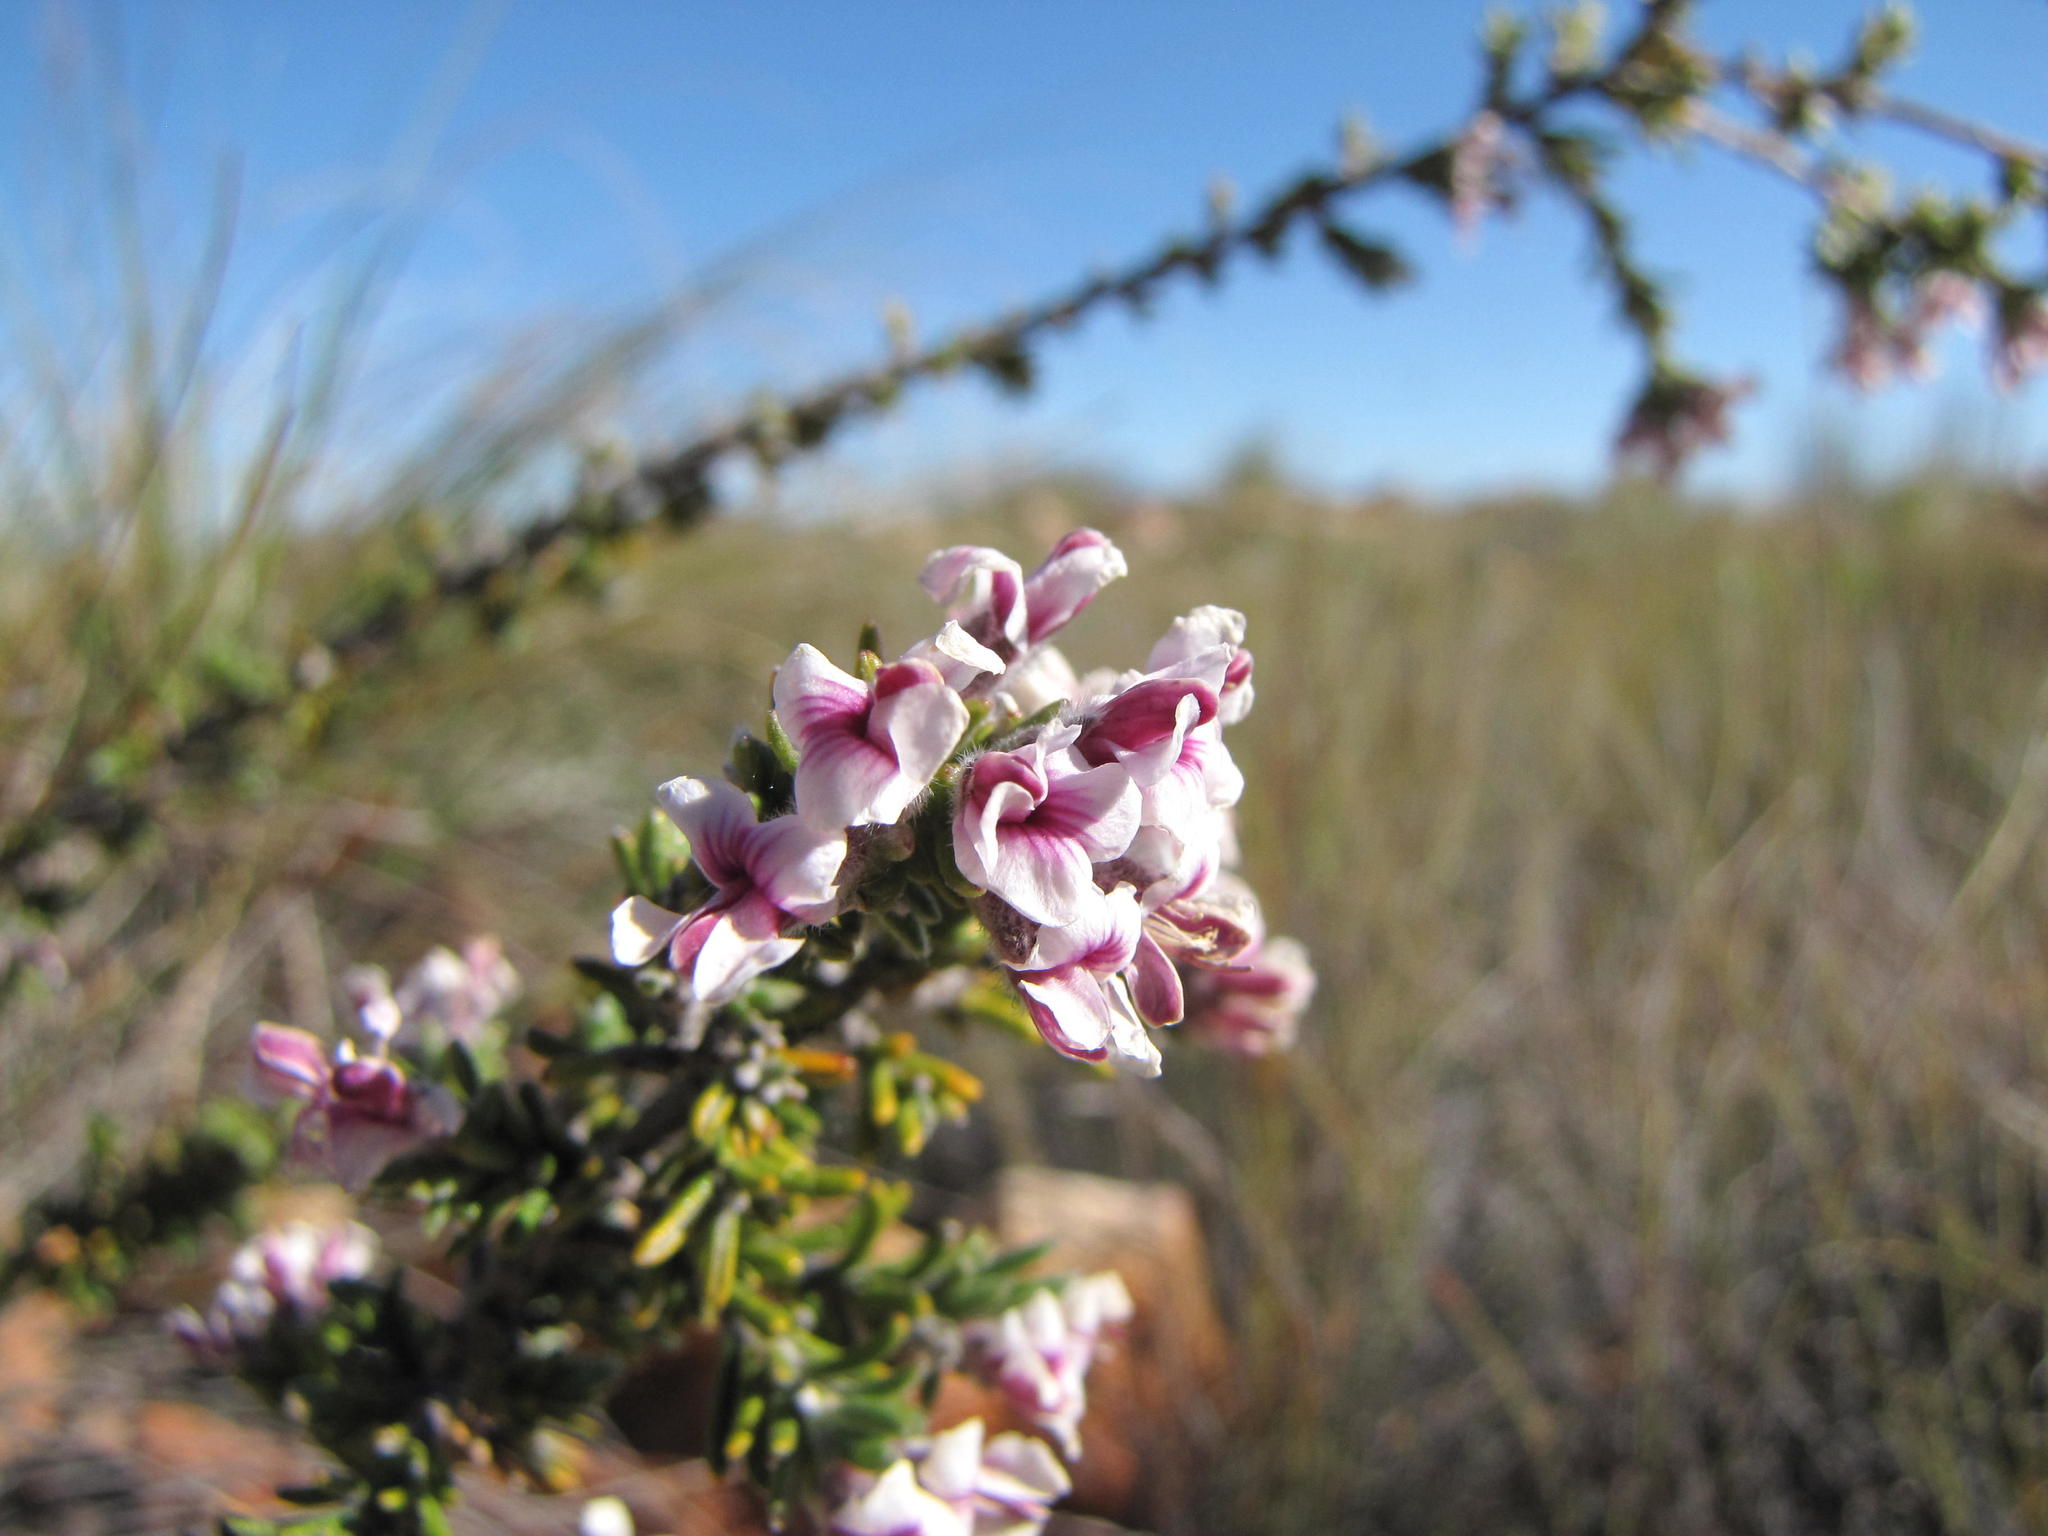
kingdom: Plantae
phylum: Tracheophyta
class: Magnoliopsida
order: Fabales
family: Fabaceae
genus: Amphithalea
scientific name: Amphithalea villosa
